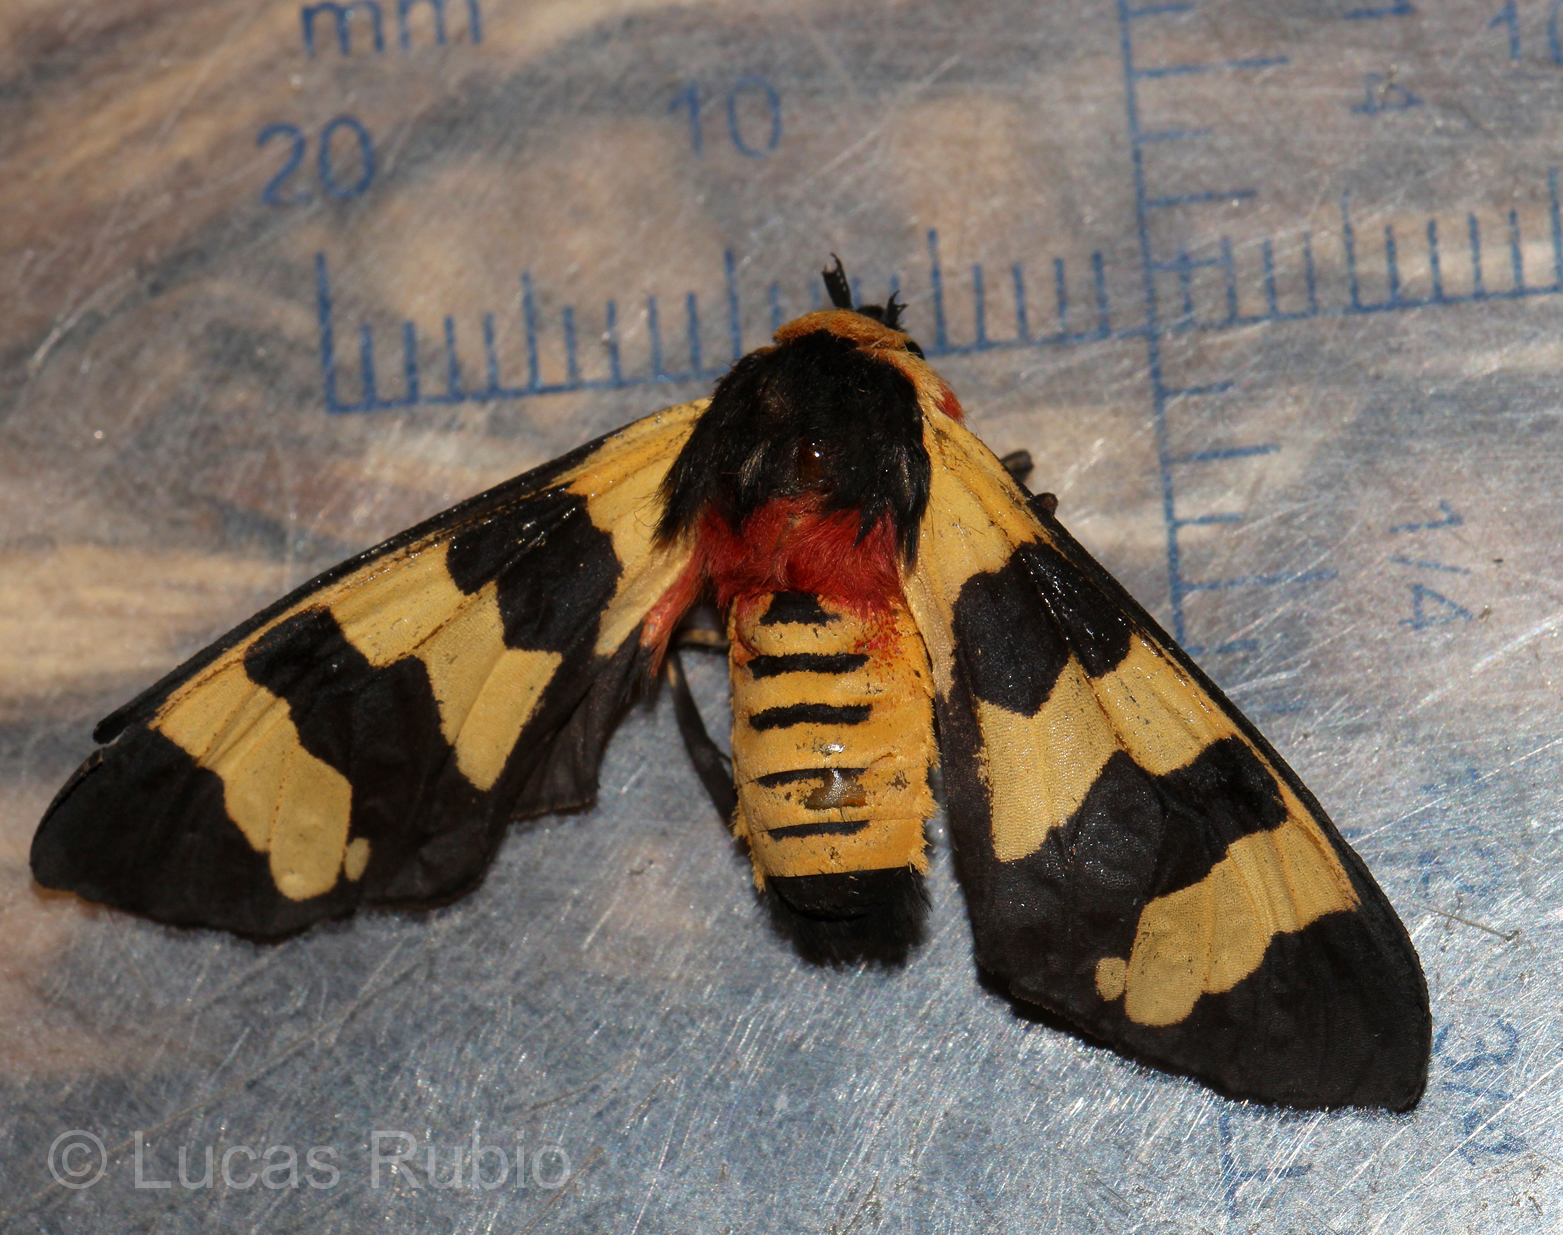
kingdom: Animalia
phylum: Arthropoda
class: Insecta
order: Lepidoptera
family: Erebidae
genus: Eurata
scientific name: Eurata hilaris
